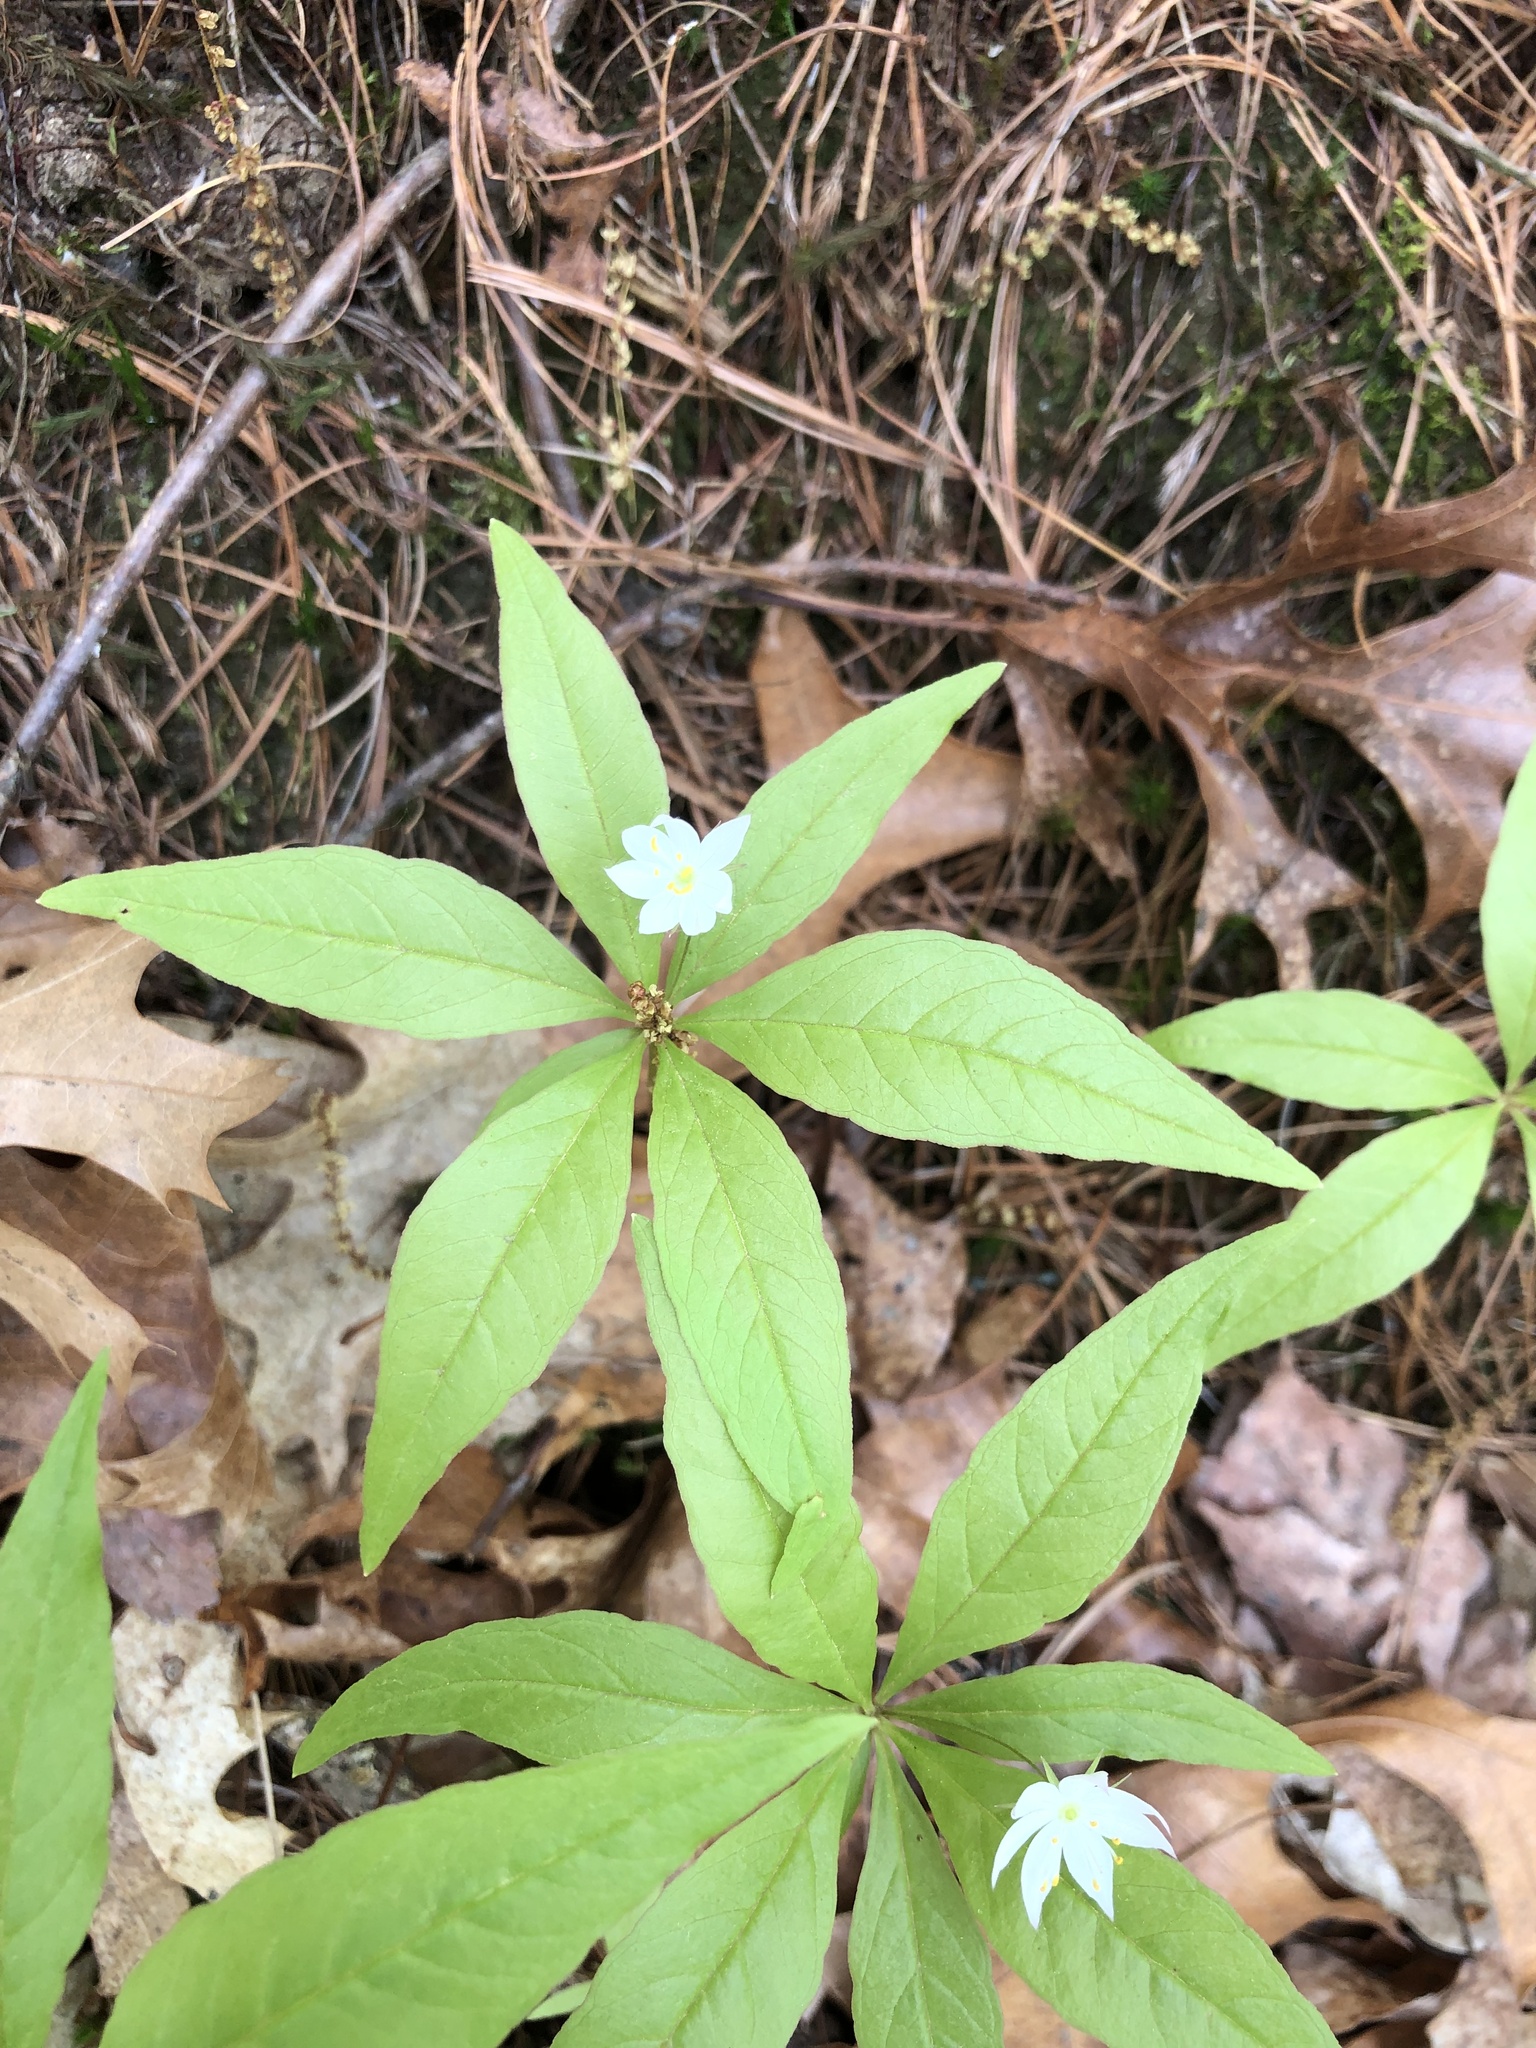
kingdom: Plantae
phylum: Tracheophyta
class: Magnoliopsida
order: Ericales
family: Primulaceae
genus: Lysimachia
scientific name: Lysimachia borealis
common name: American starflower
